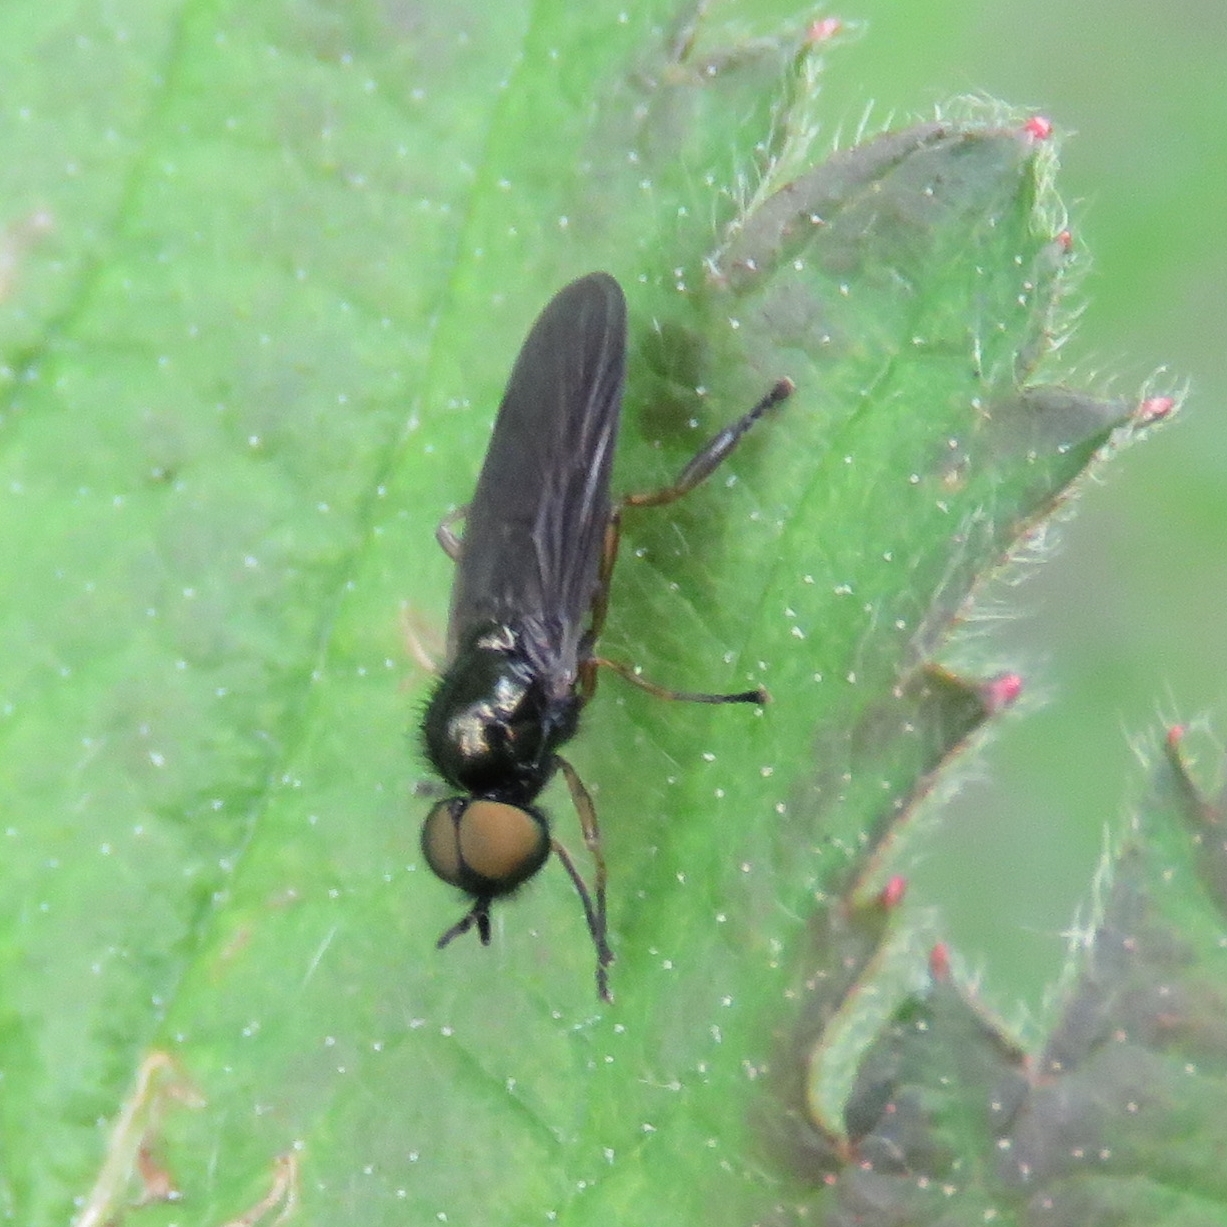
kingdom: Animalia
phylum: Arthropoda
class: Insecta
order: Diptera
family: Stratiomyidae
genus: Beris
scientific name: Beris chalybata
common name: Murky-legged black legionnaire
